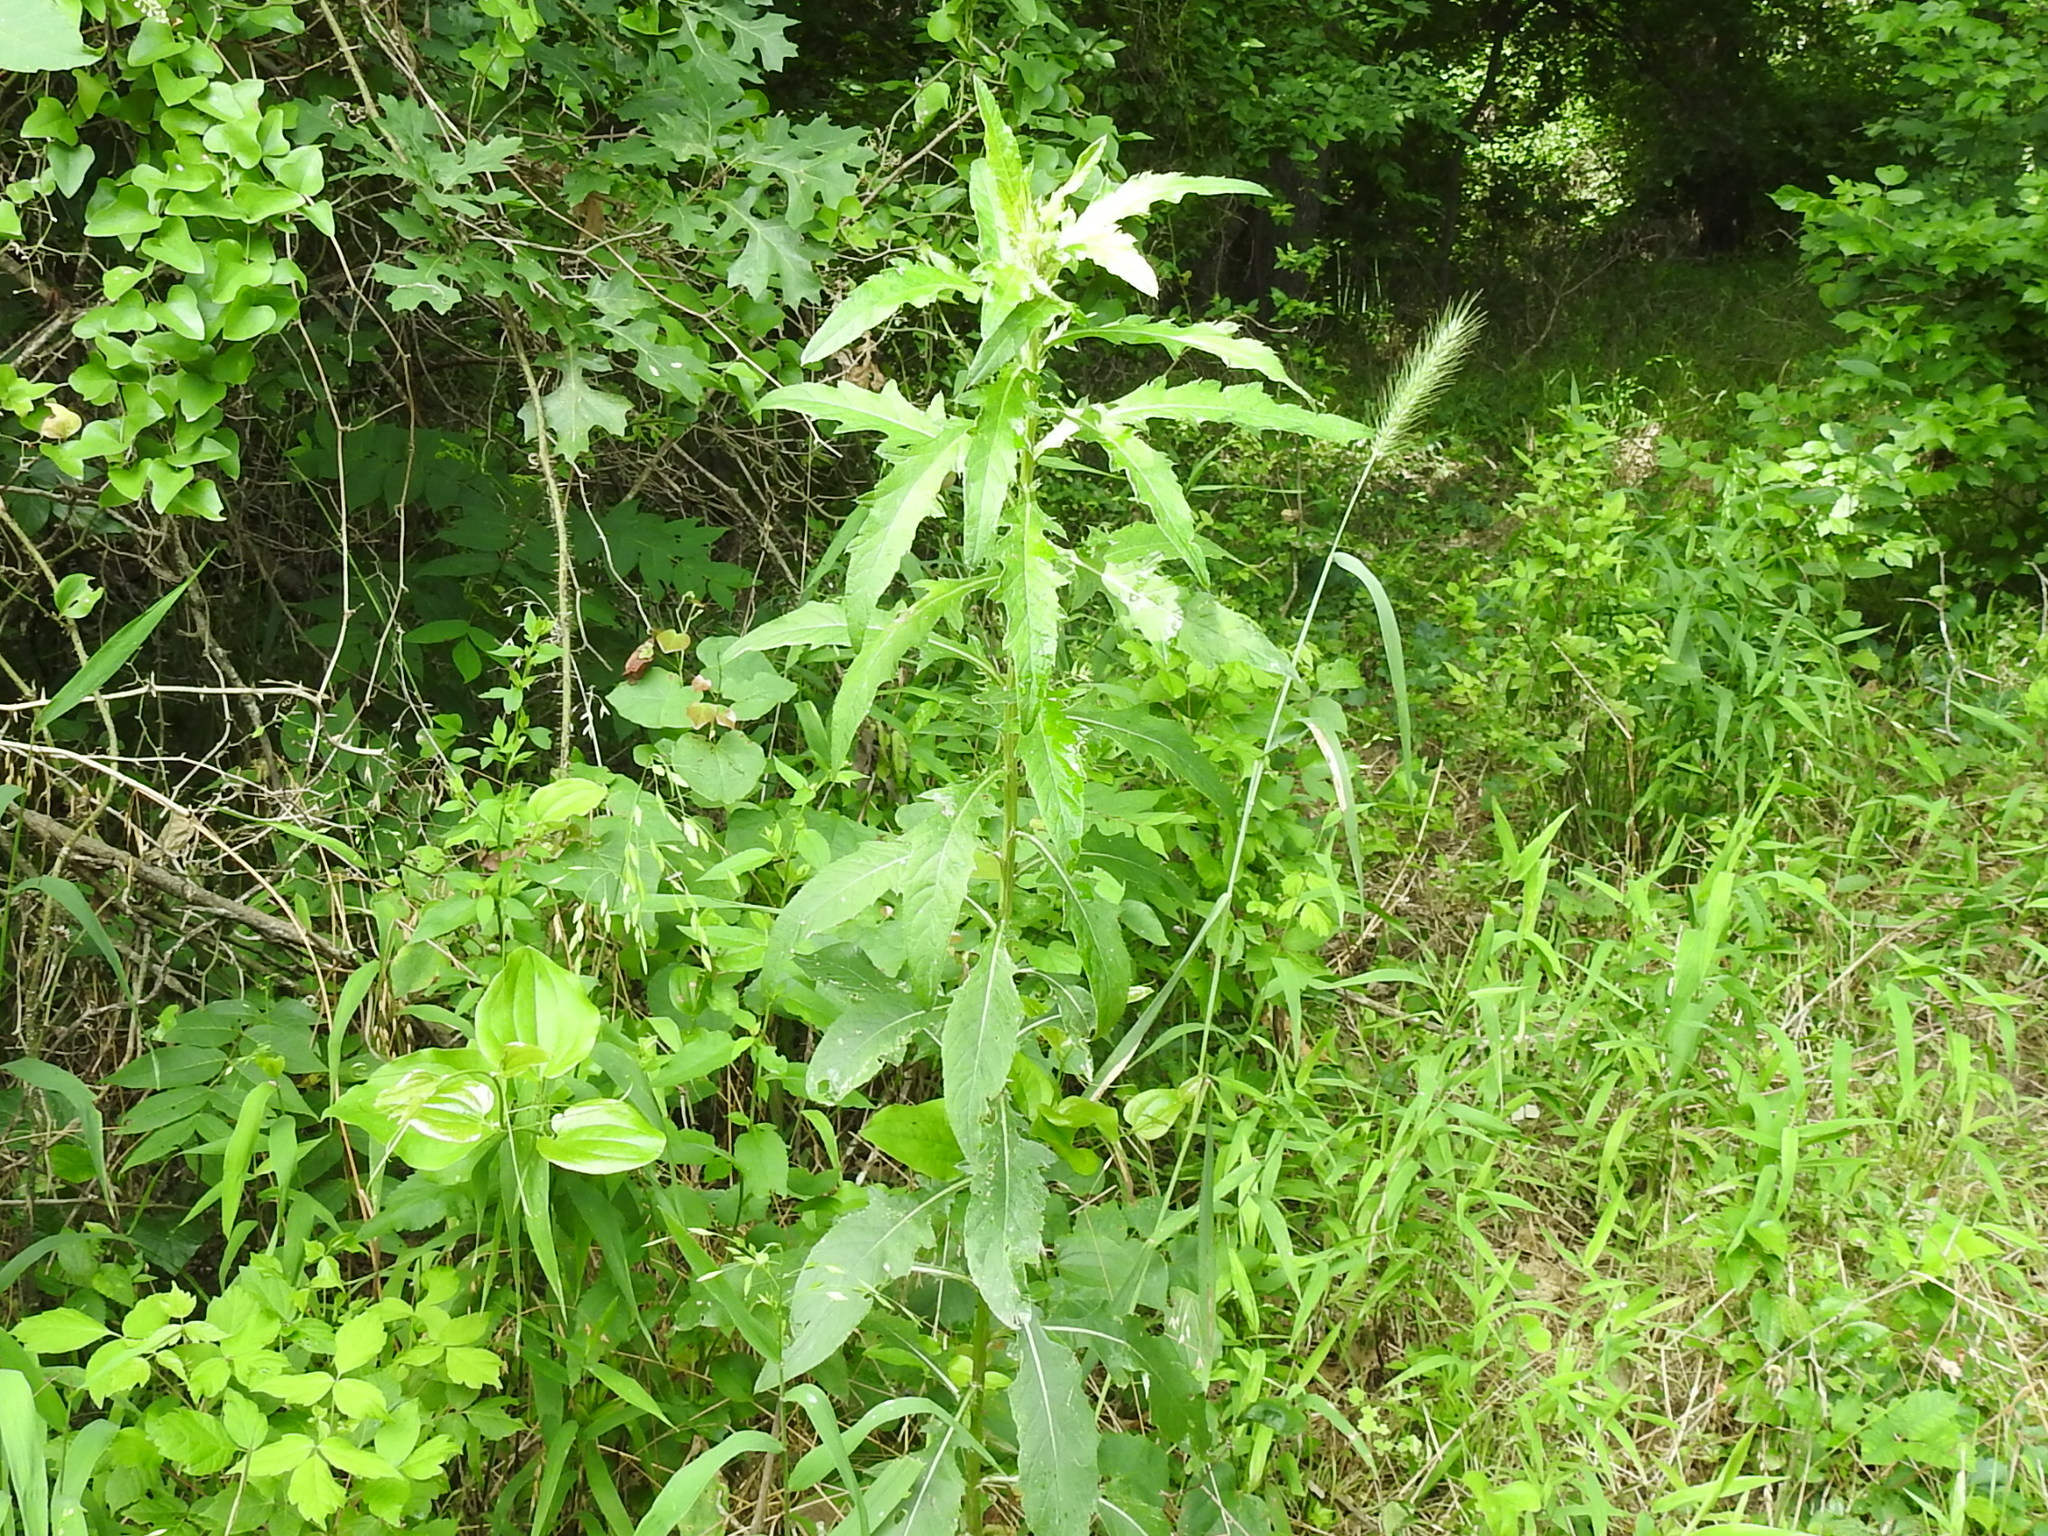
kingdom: Plantae
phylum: Tracheophyta
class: Magnoliopsida
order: Asterales
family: Asteraceae
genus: Cirsium
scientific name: Cirsium altissimum
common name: Roadside thistle
